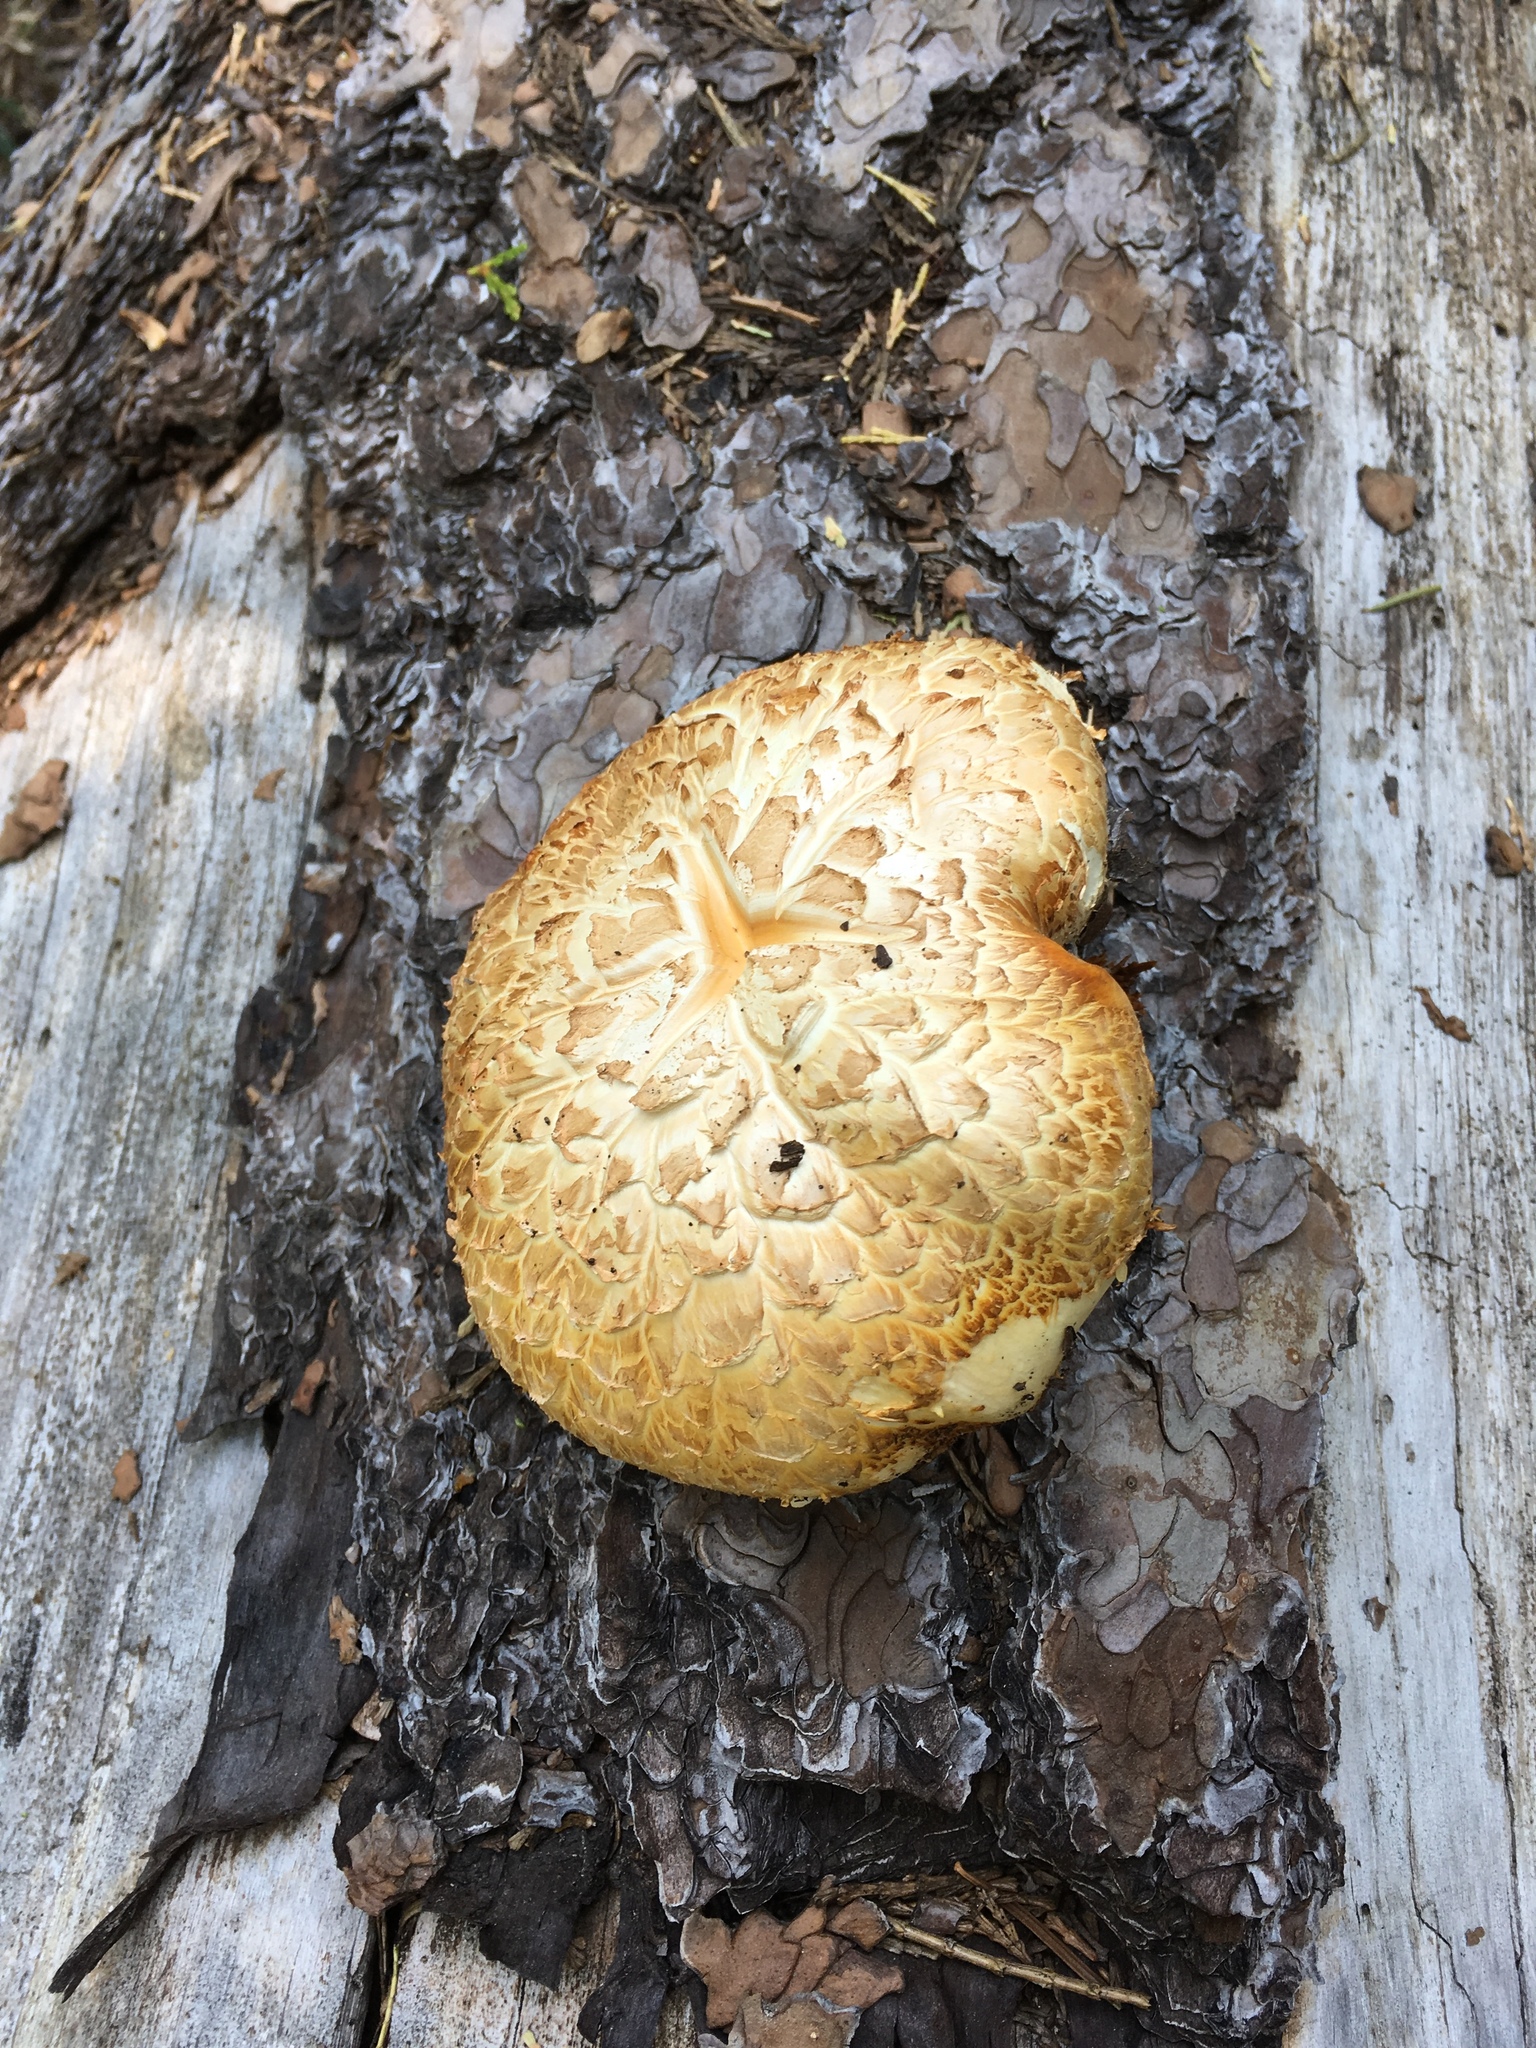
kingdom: Fungi
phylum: Basidiomycota
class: Agaricomycetes
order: Gloeophyllales
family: Gloeophyllaceae
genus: Neolentinus
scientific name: Neolentinus ponderosus
